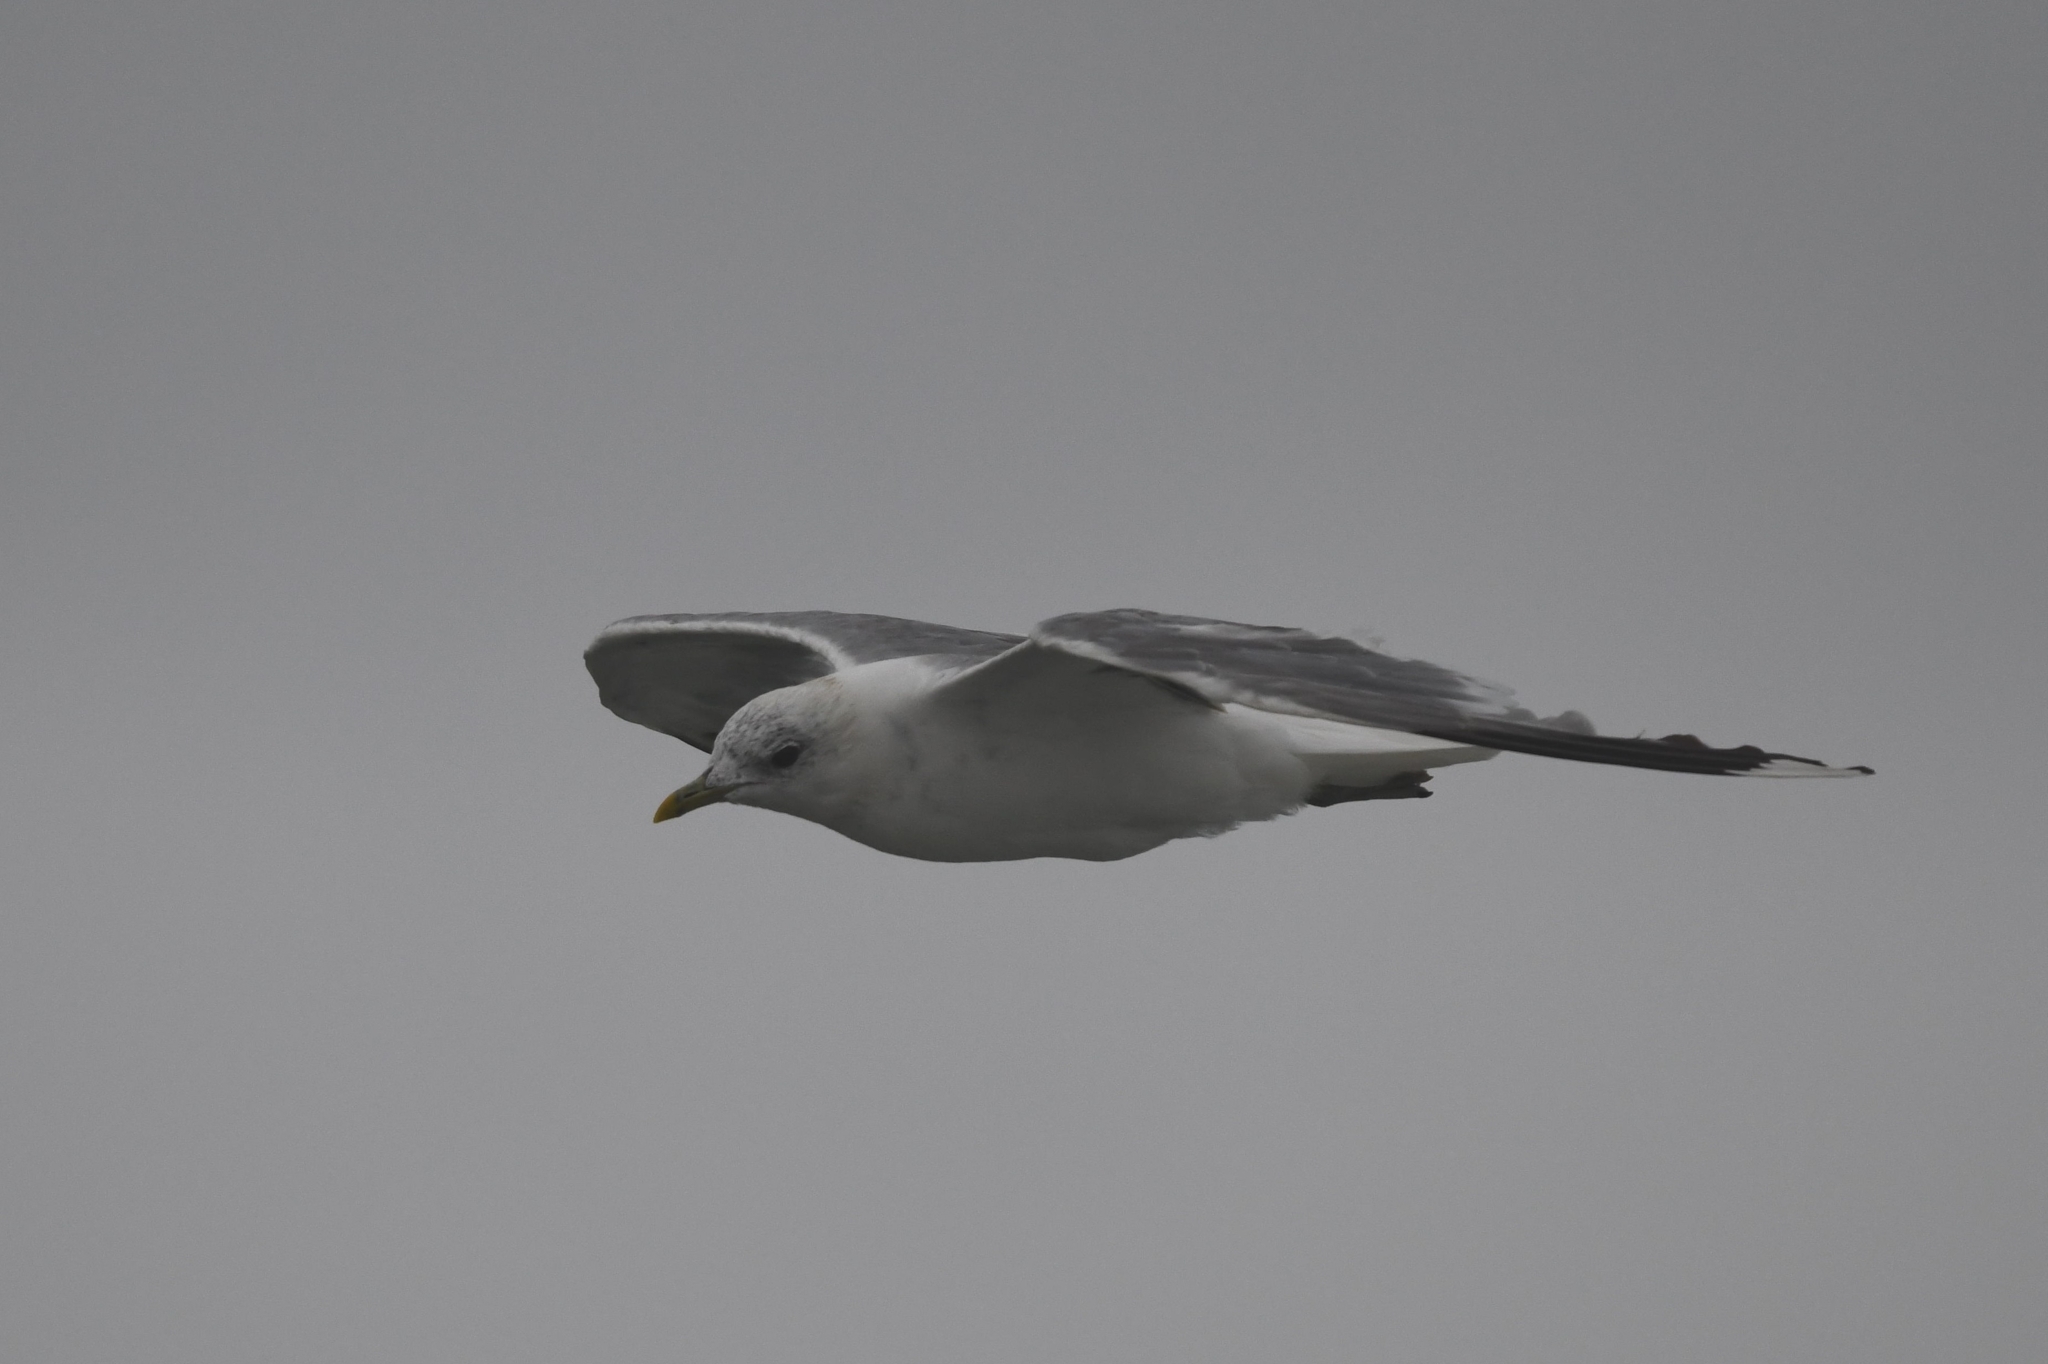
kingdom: Animalia
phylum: Chordata
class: Aves
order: Charadriiformes
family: Laridae
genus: Larus
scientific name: Larus canus
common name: Mew gull
